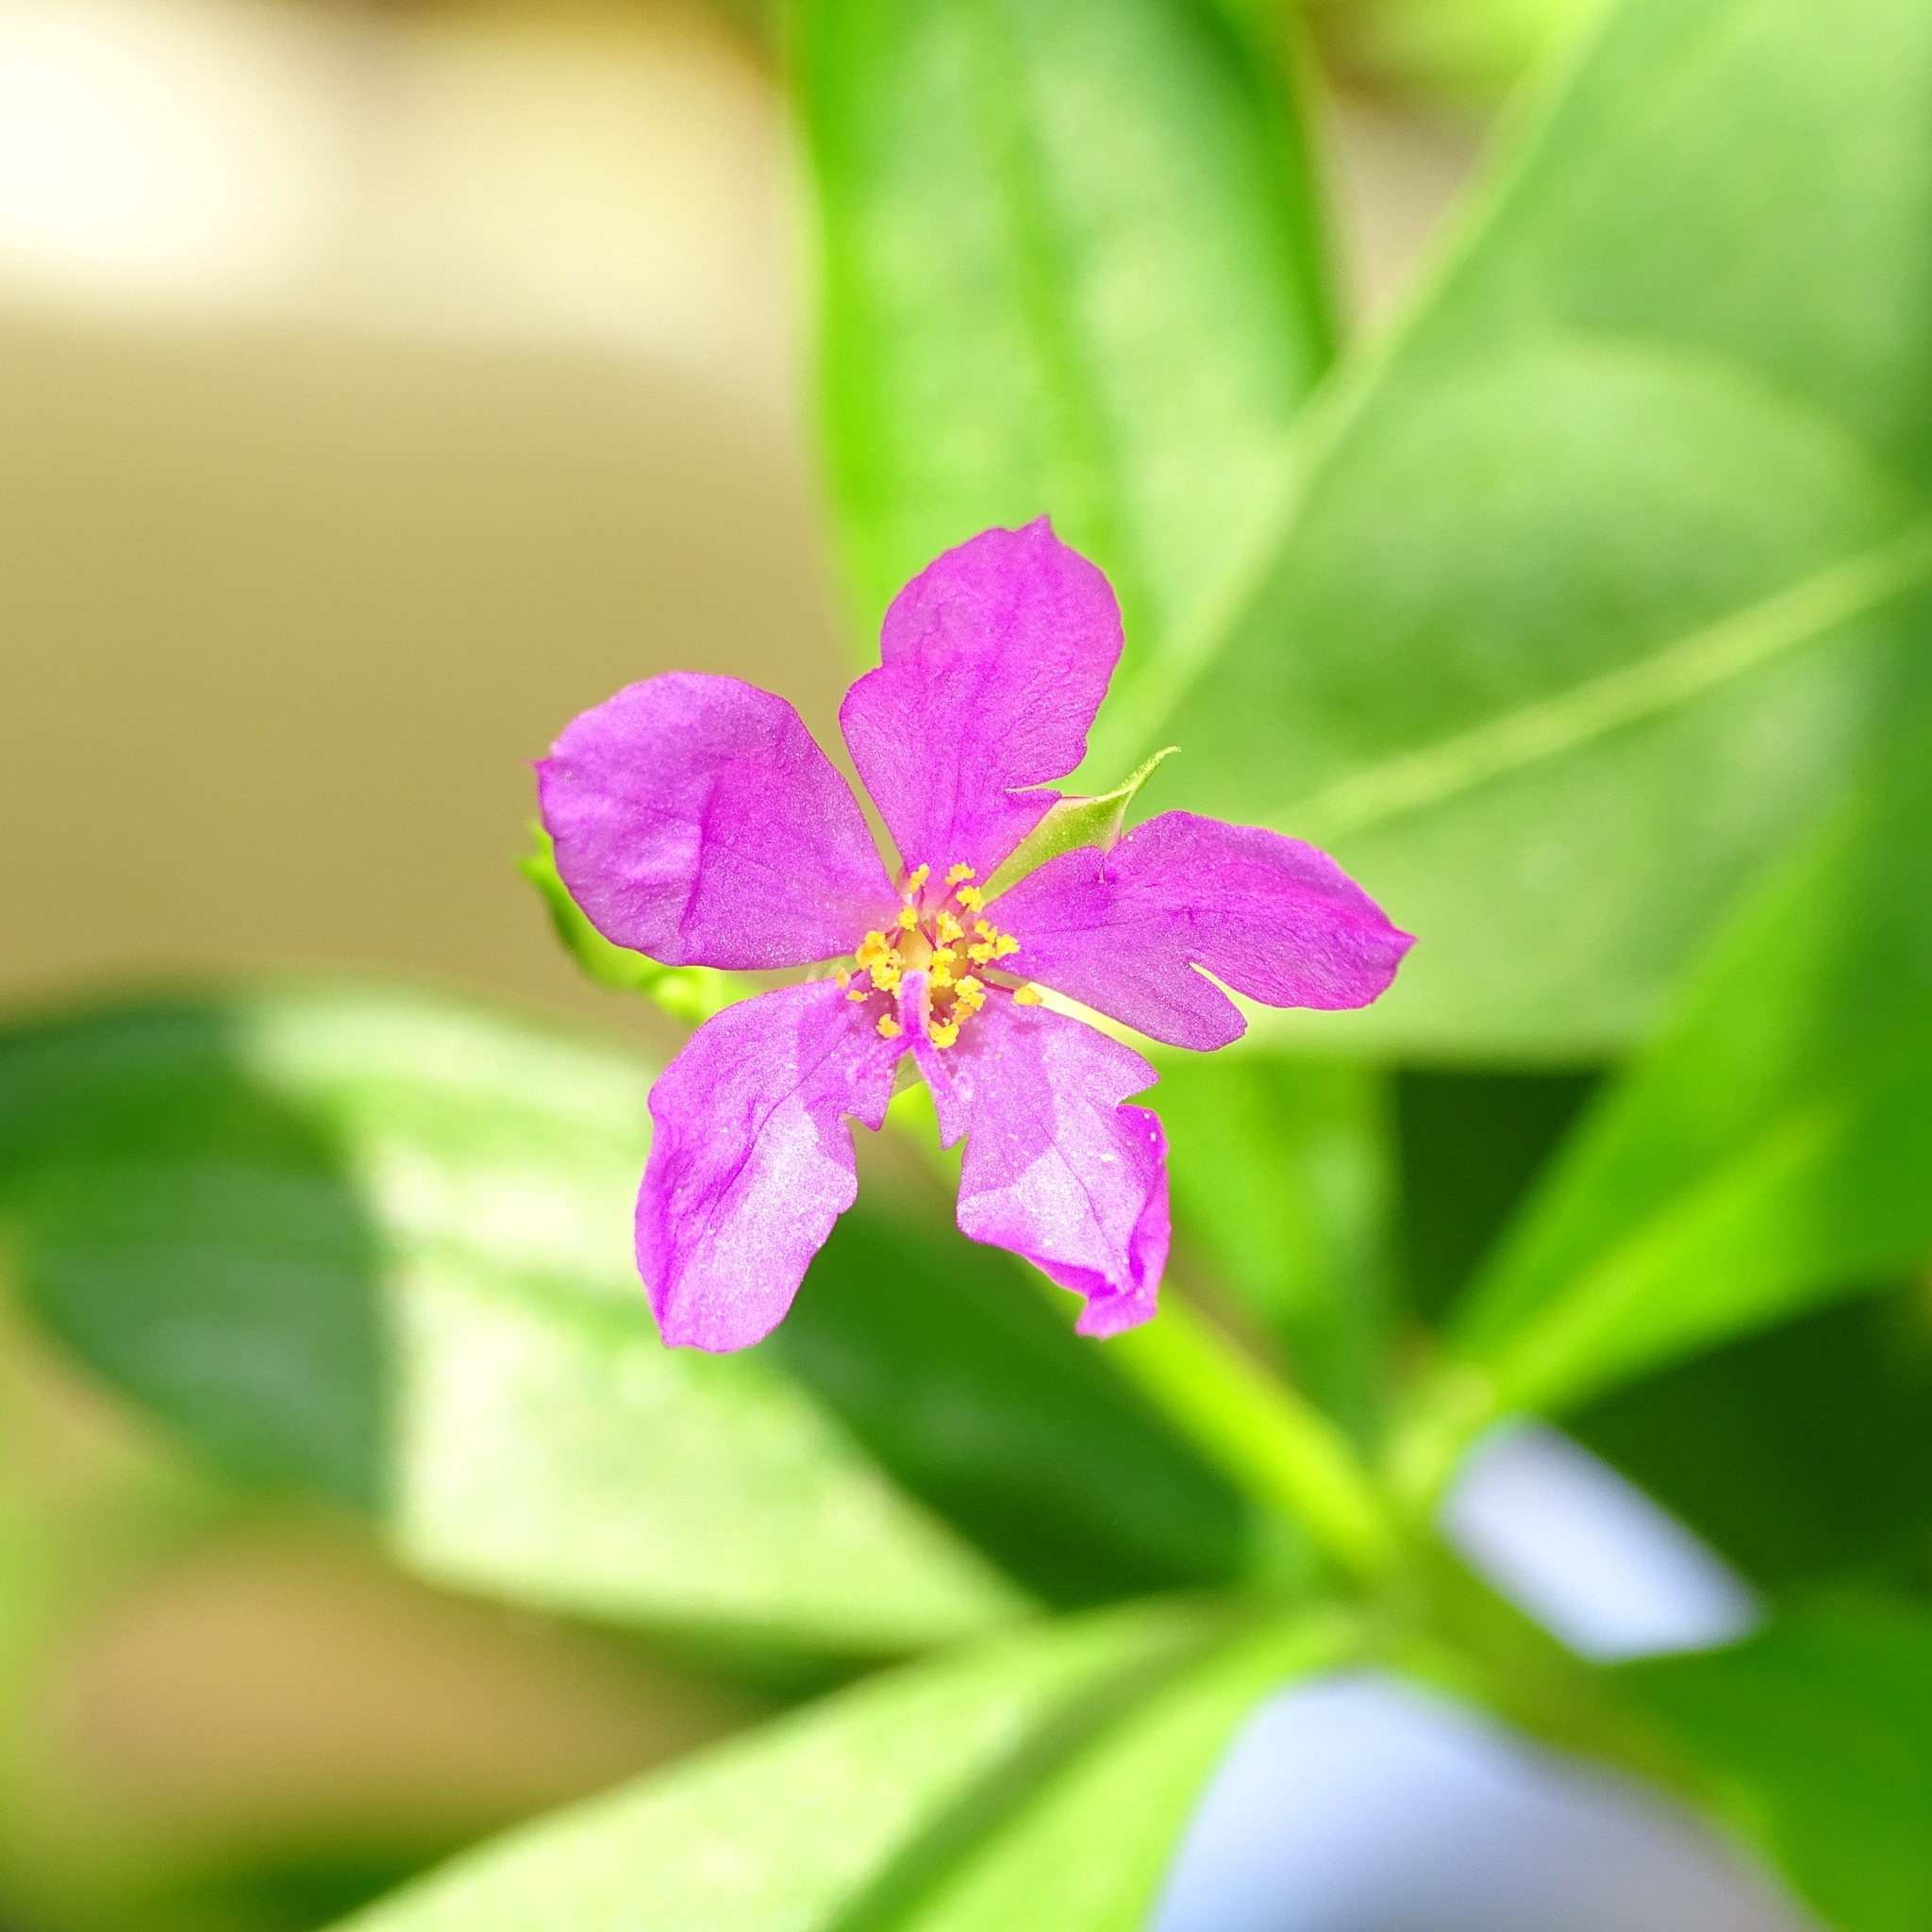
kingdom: Plantae
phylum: Tracheophyta
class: Magnoliopsida
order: Caryophyllales
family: Talinaceae
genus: Talinum
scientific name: Talinum fruticosum
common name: Verdolaga-francesa
